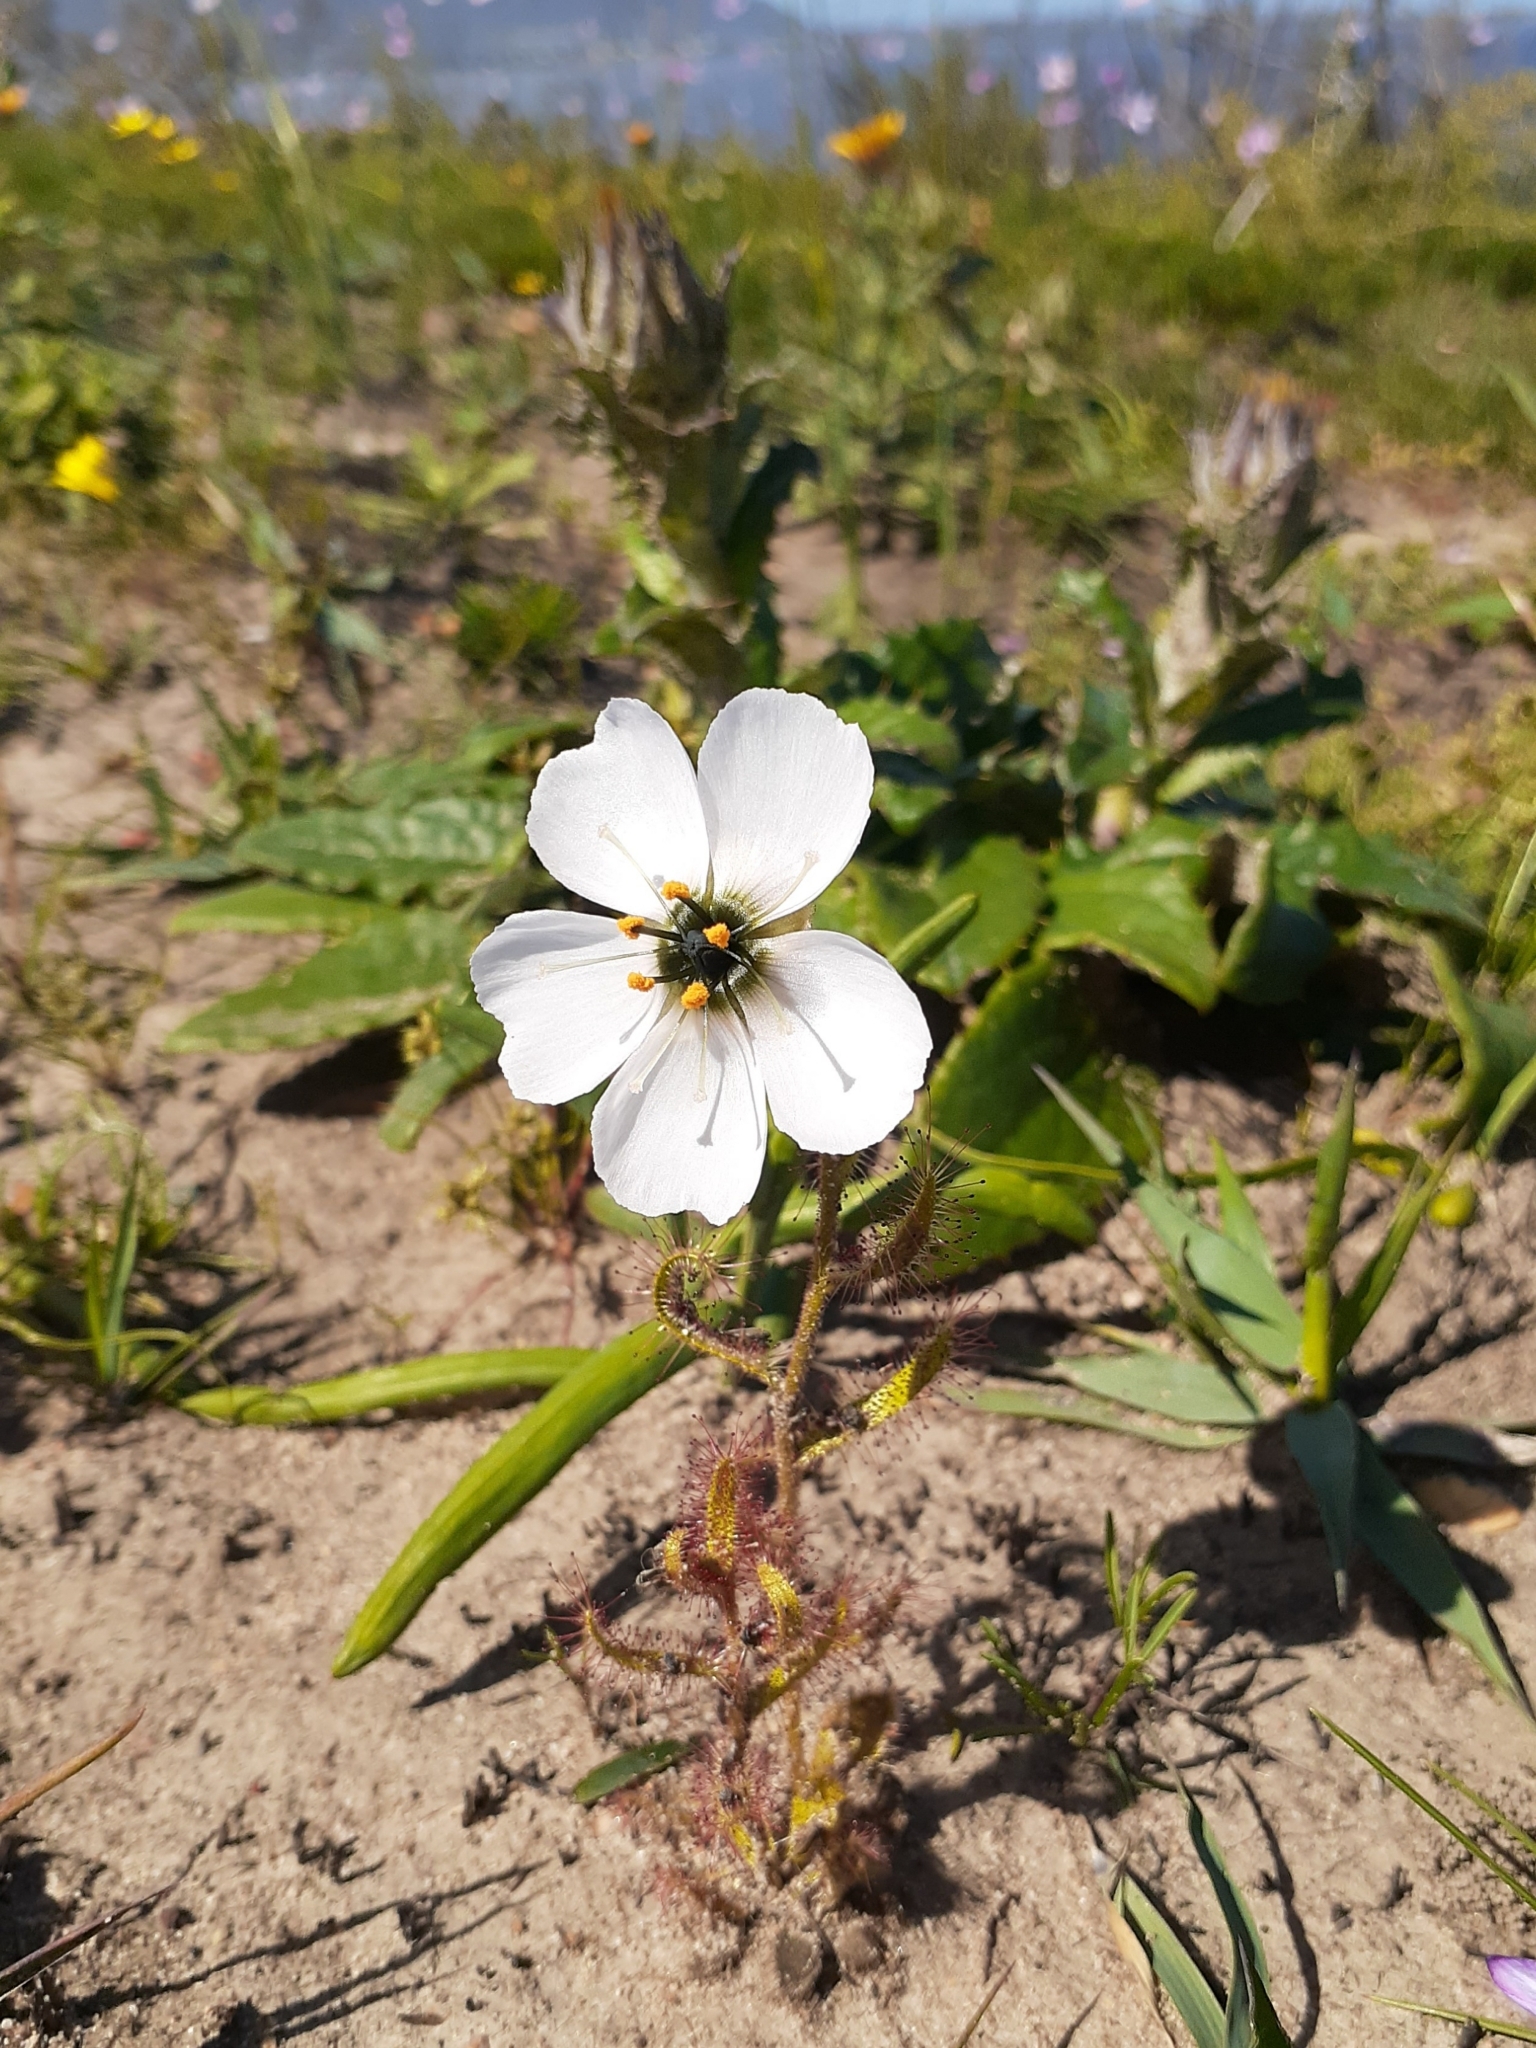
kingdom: Plantae
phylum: Tracheophyta
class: Magnoliopsida
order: Caryophyllales
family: Droseraceae
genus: Drosera
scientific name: Drosera cistiflora
